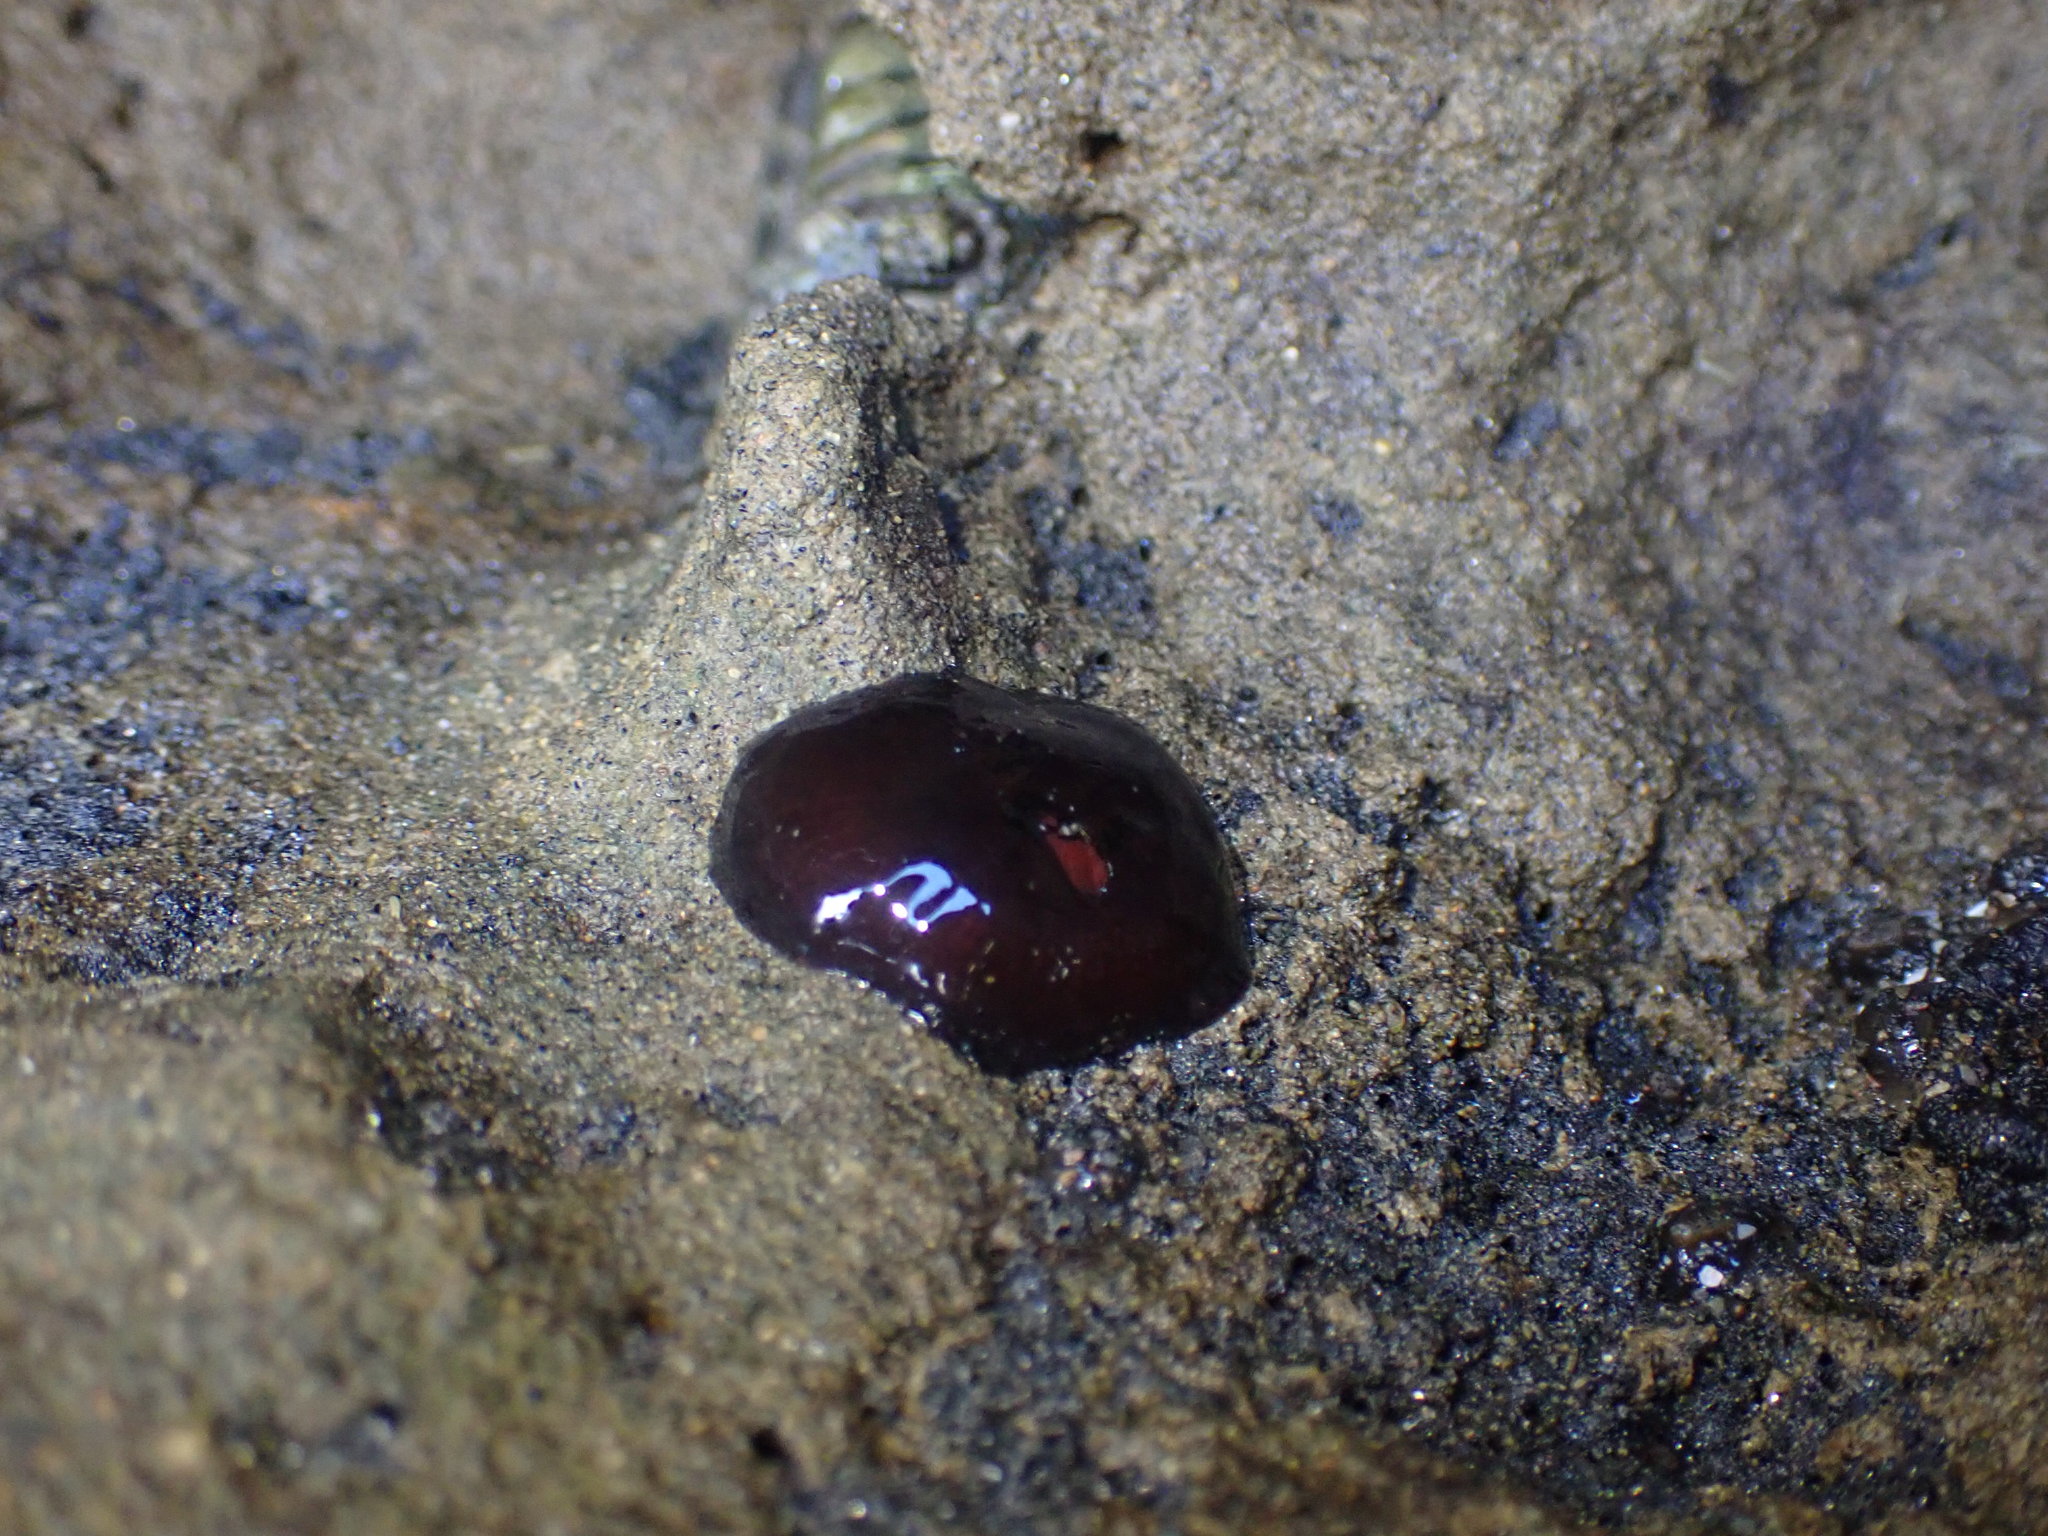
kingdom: Animalia
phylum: Cnidaria
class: Anthozoa
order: Actiniaria
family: Actiniidae
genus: Actinia
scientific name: Actinia tenebrosa
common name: Waratah anemone
